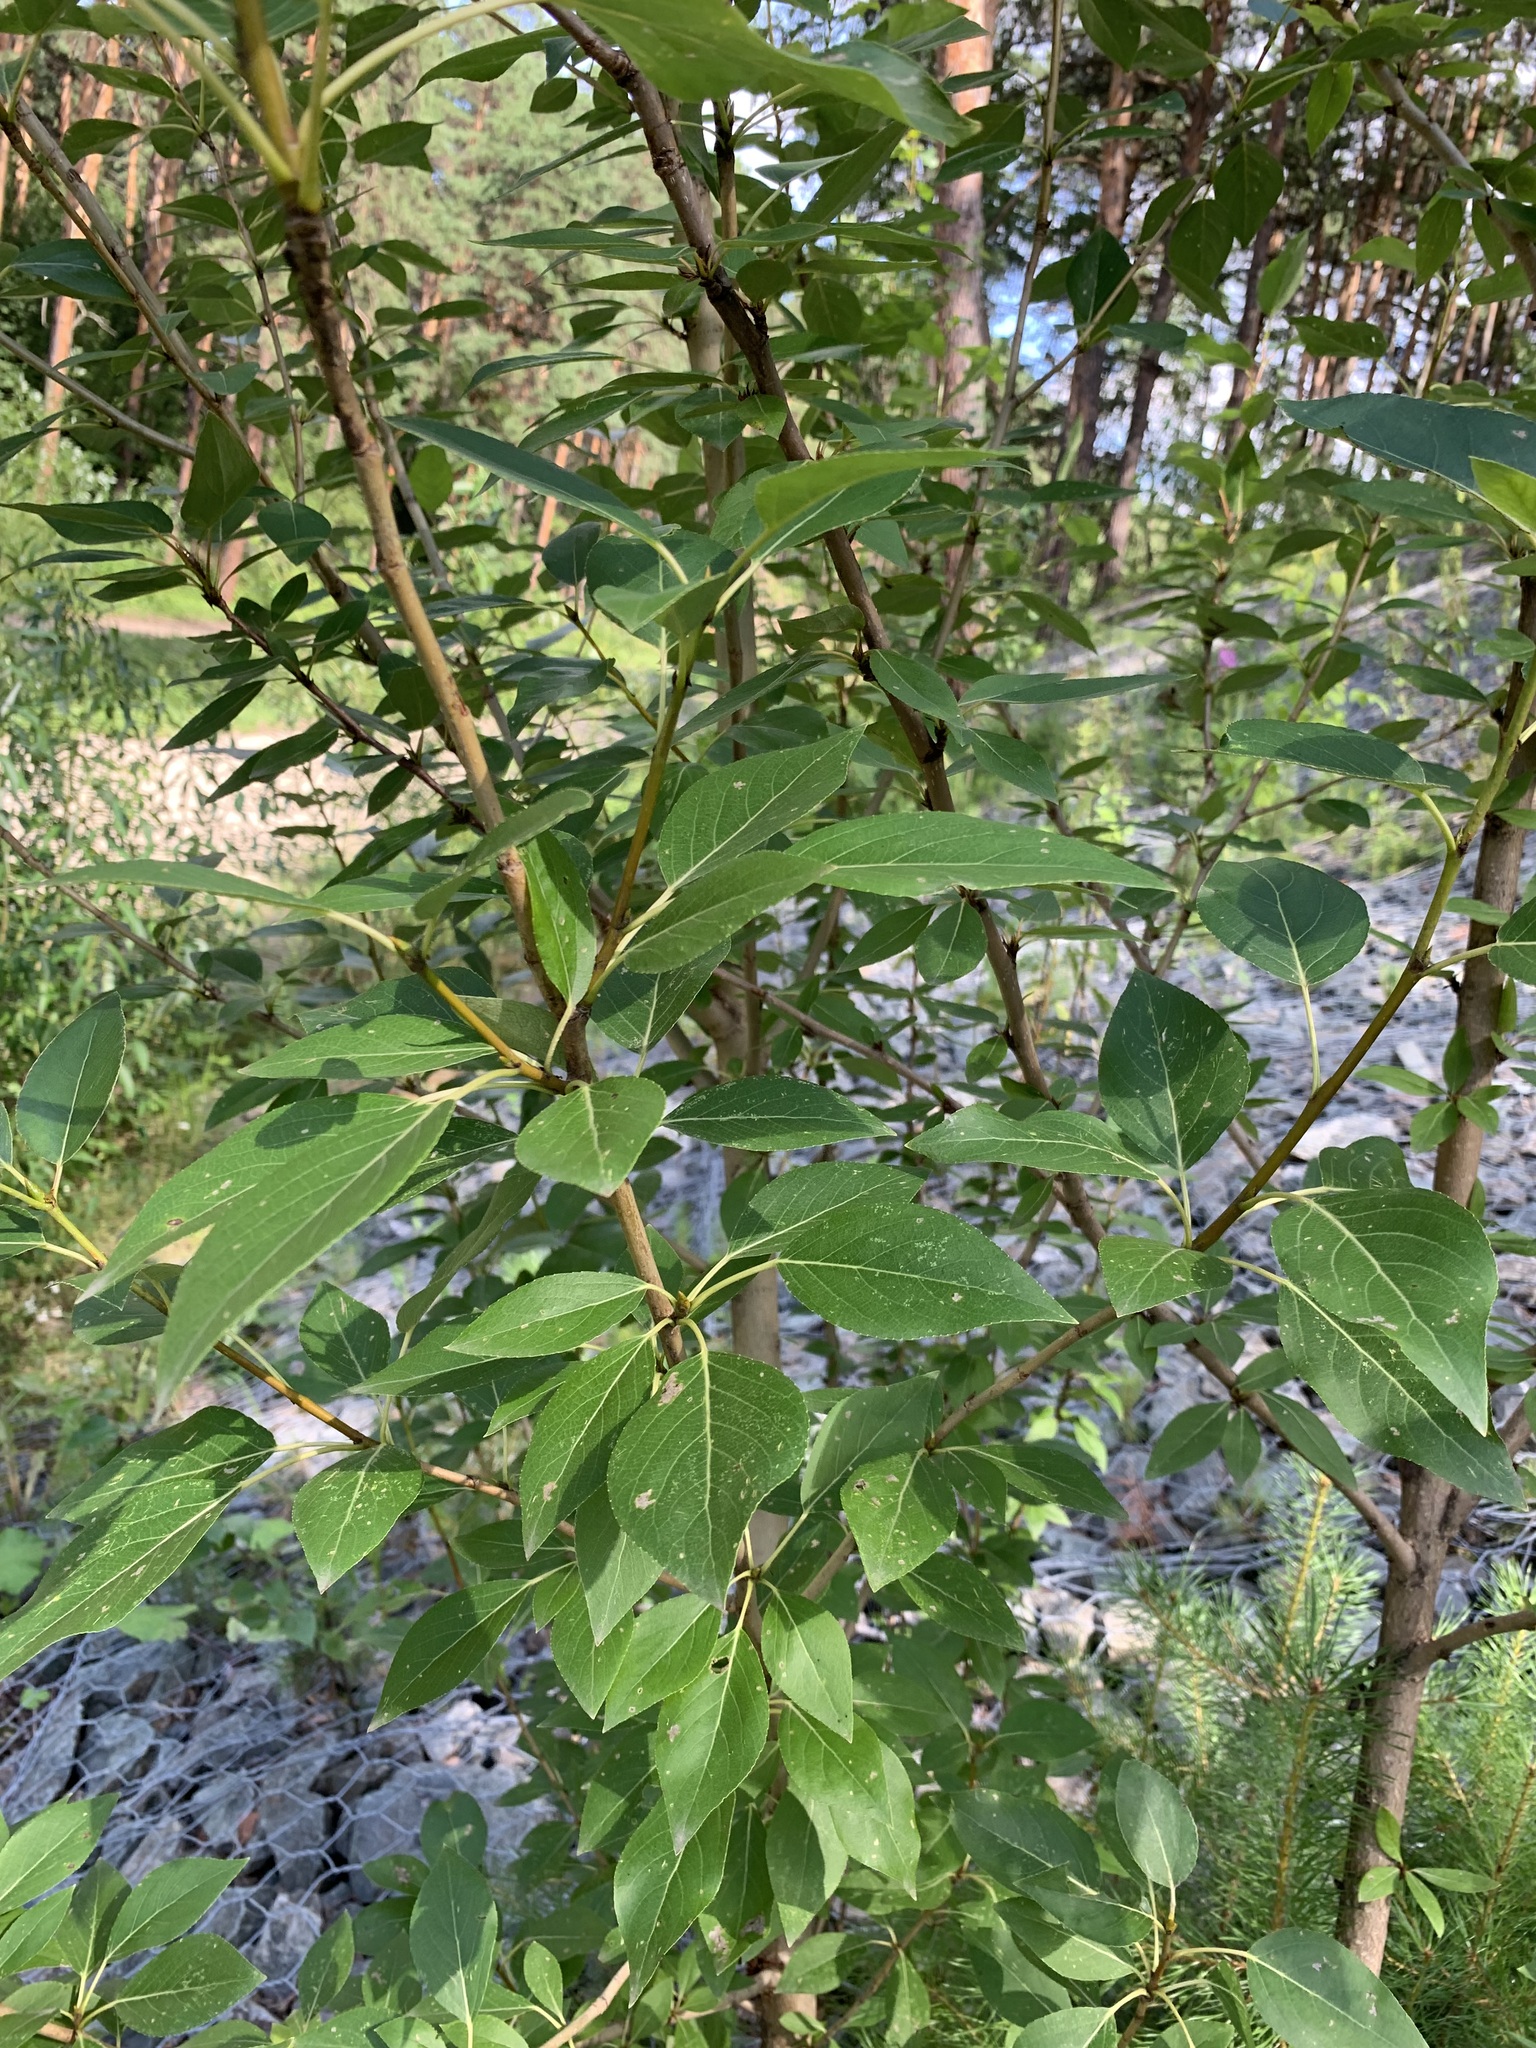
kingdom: Plantae
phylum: Tracheophyta
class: Magnoliopsida
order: Malpighiales
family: Salicaceae
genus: Populus
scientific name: Populus sibirica
